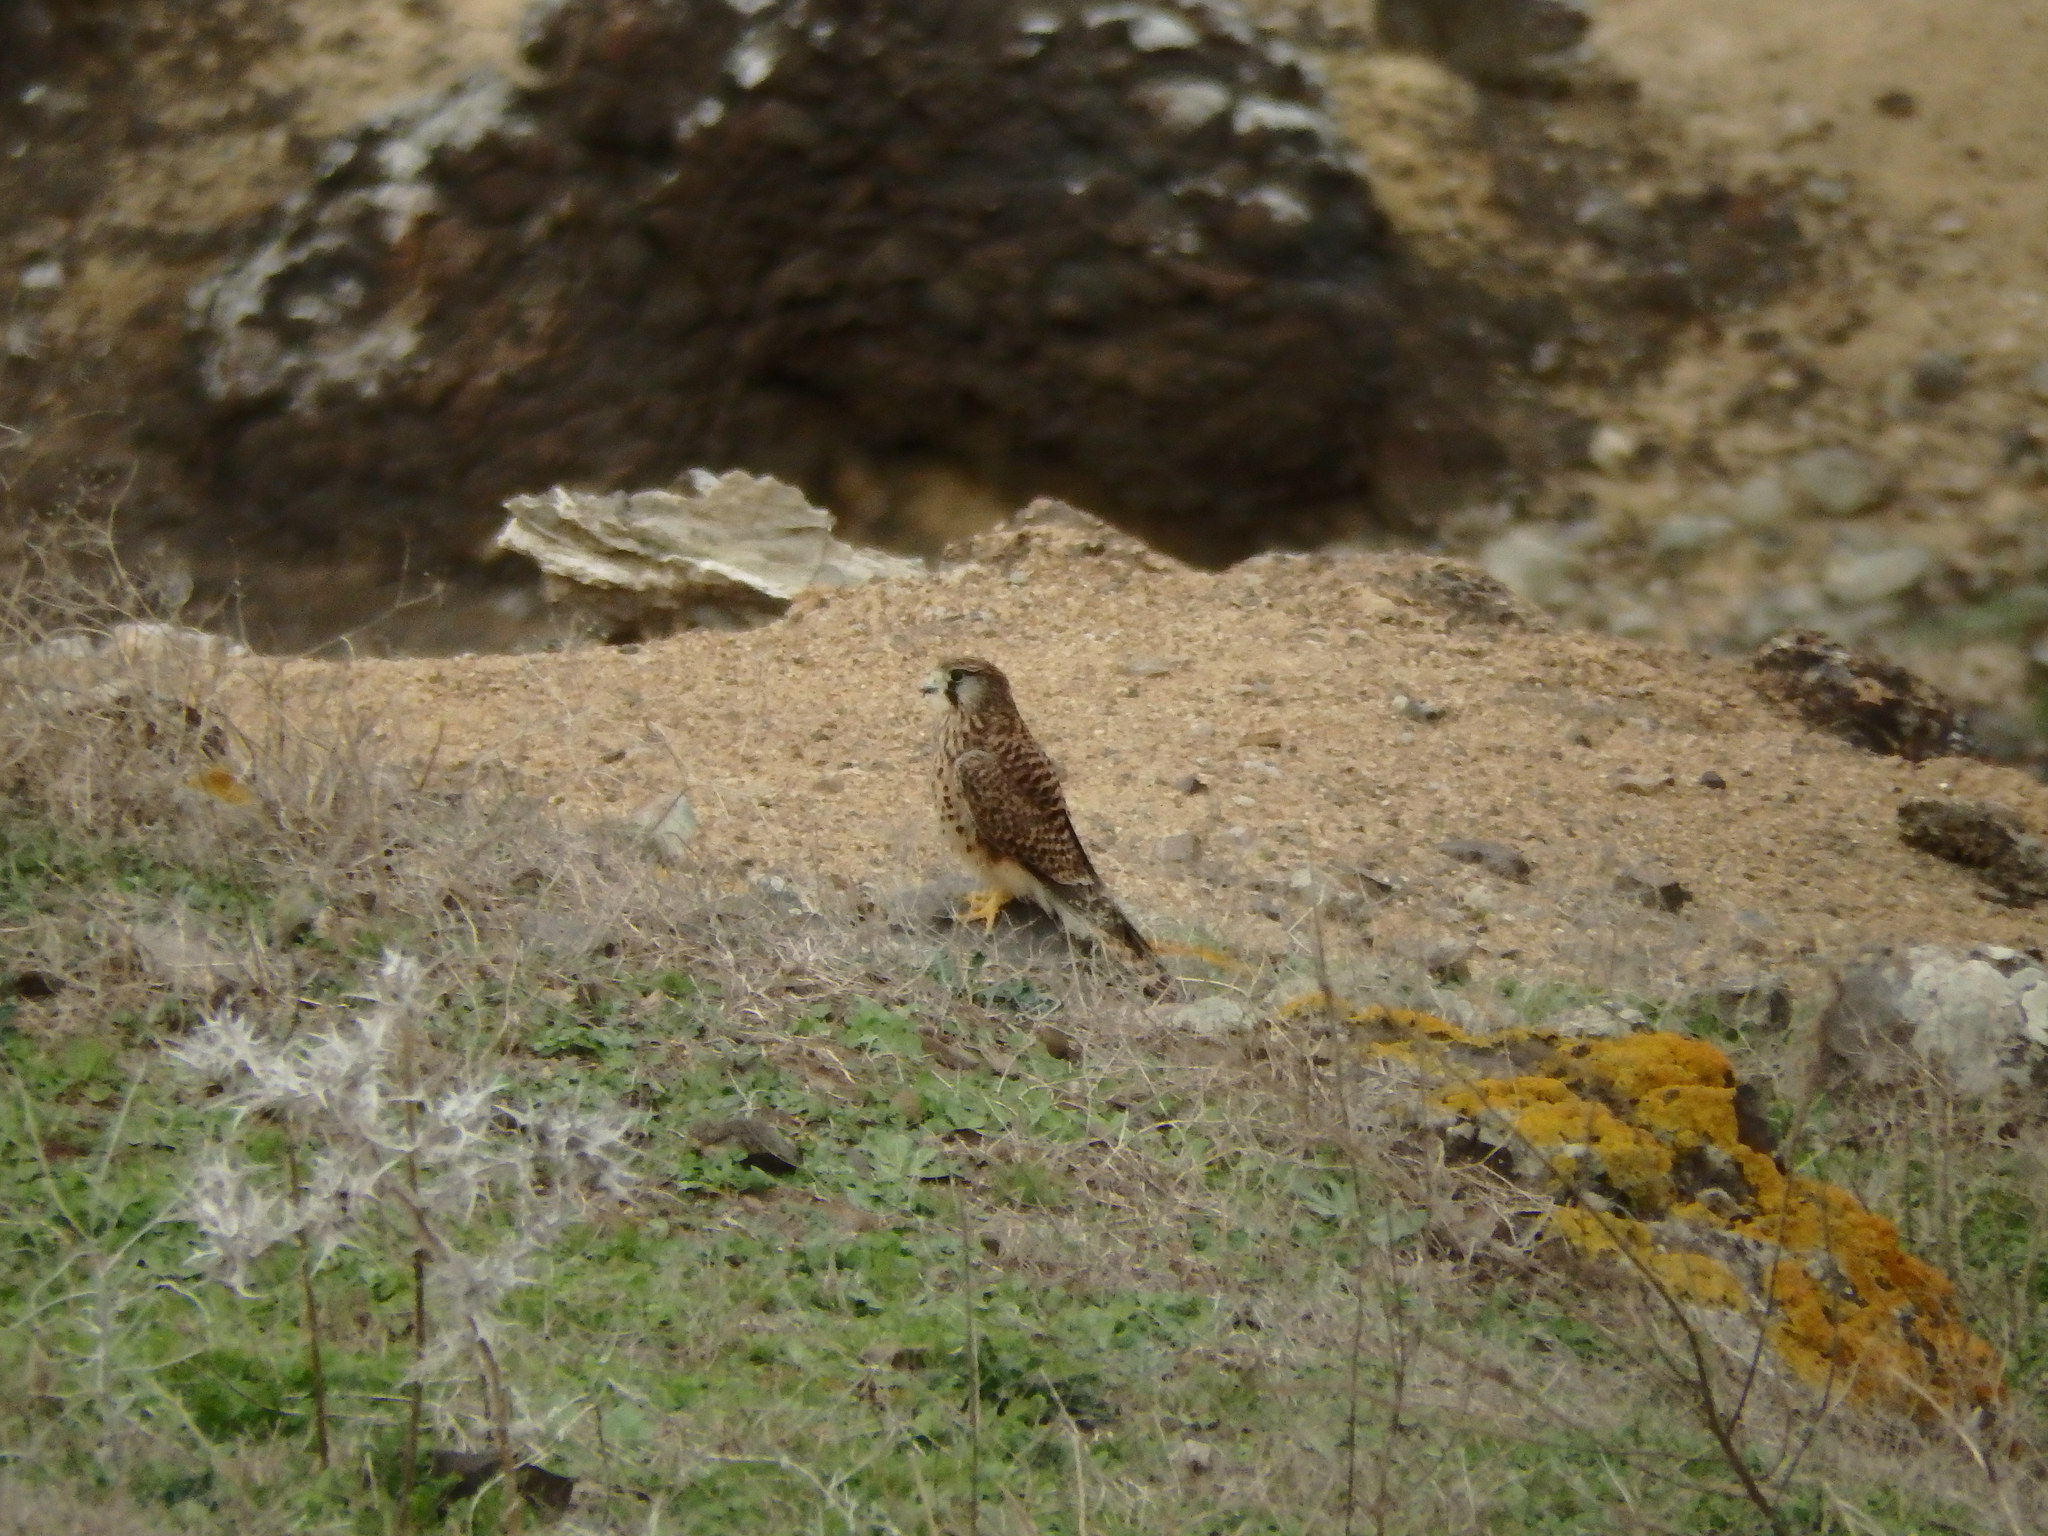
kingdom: Animalia
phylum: Chordata
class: Aves
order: Falconiformes
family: Falconidae
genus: Falco
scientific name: Falco tinnunculus
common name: Common kestrel
